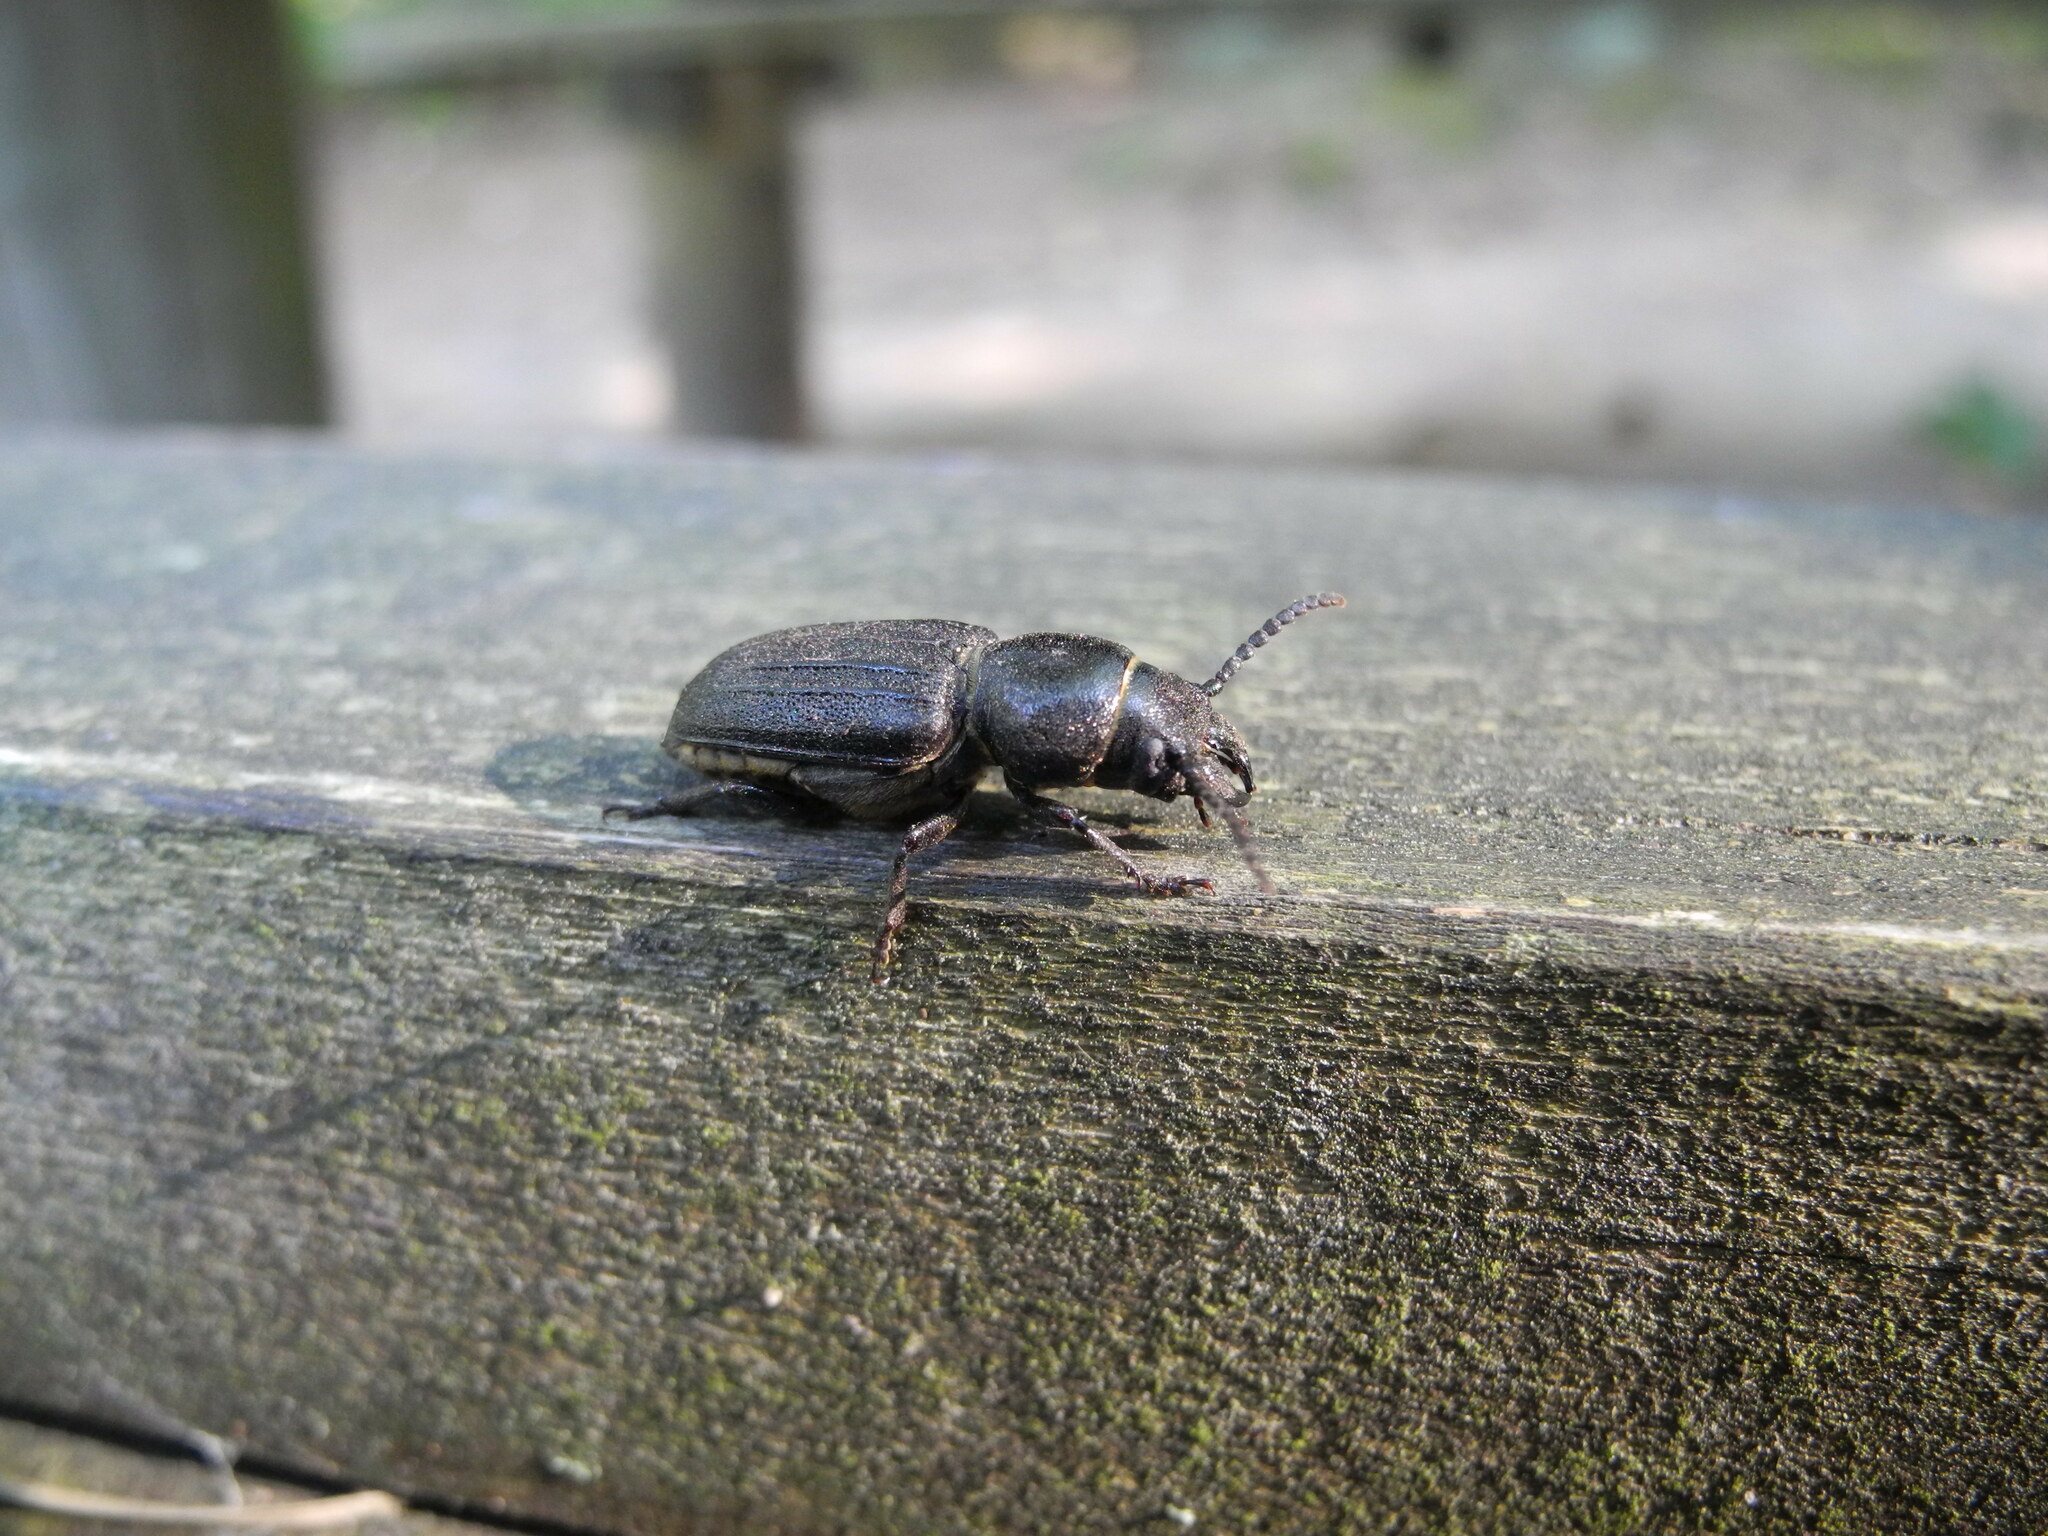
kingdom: Animalia
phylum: Arthropoda
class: Insecta
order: Coleoptera
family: Cerambycidae
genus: Spondylis
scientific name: Spondylis buprestoides
